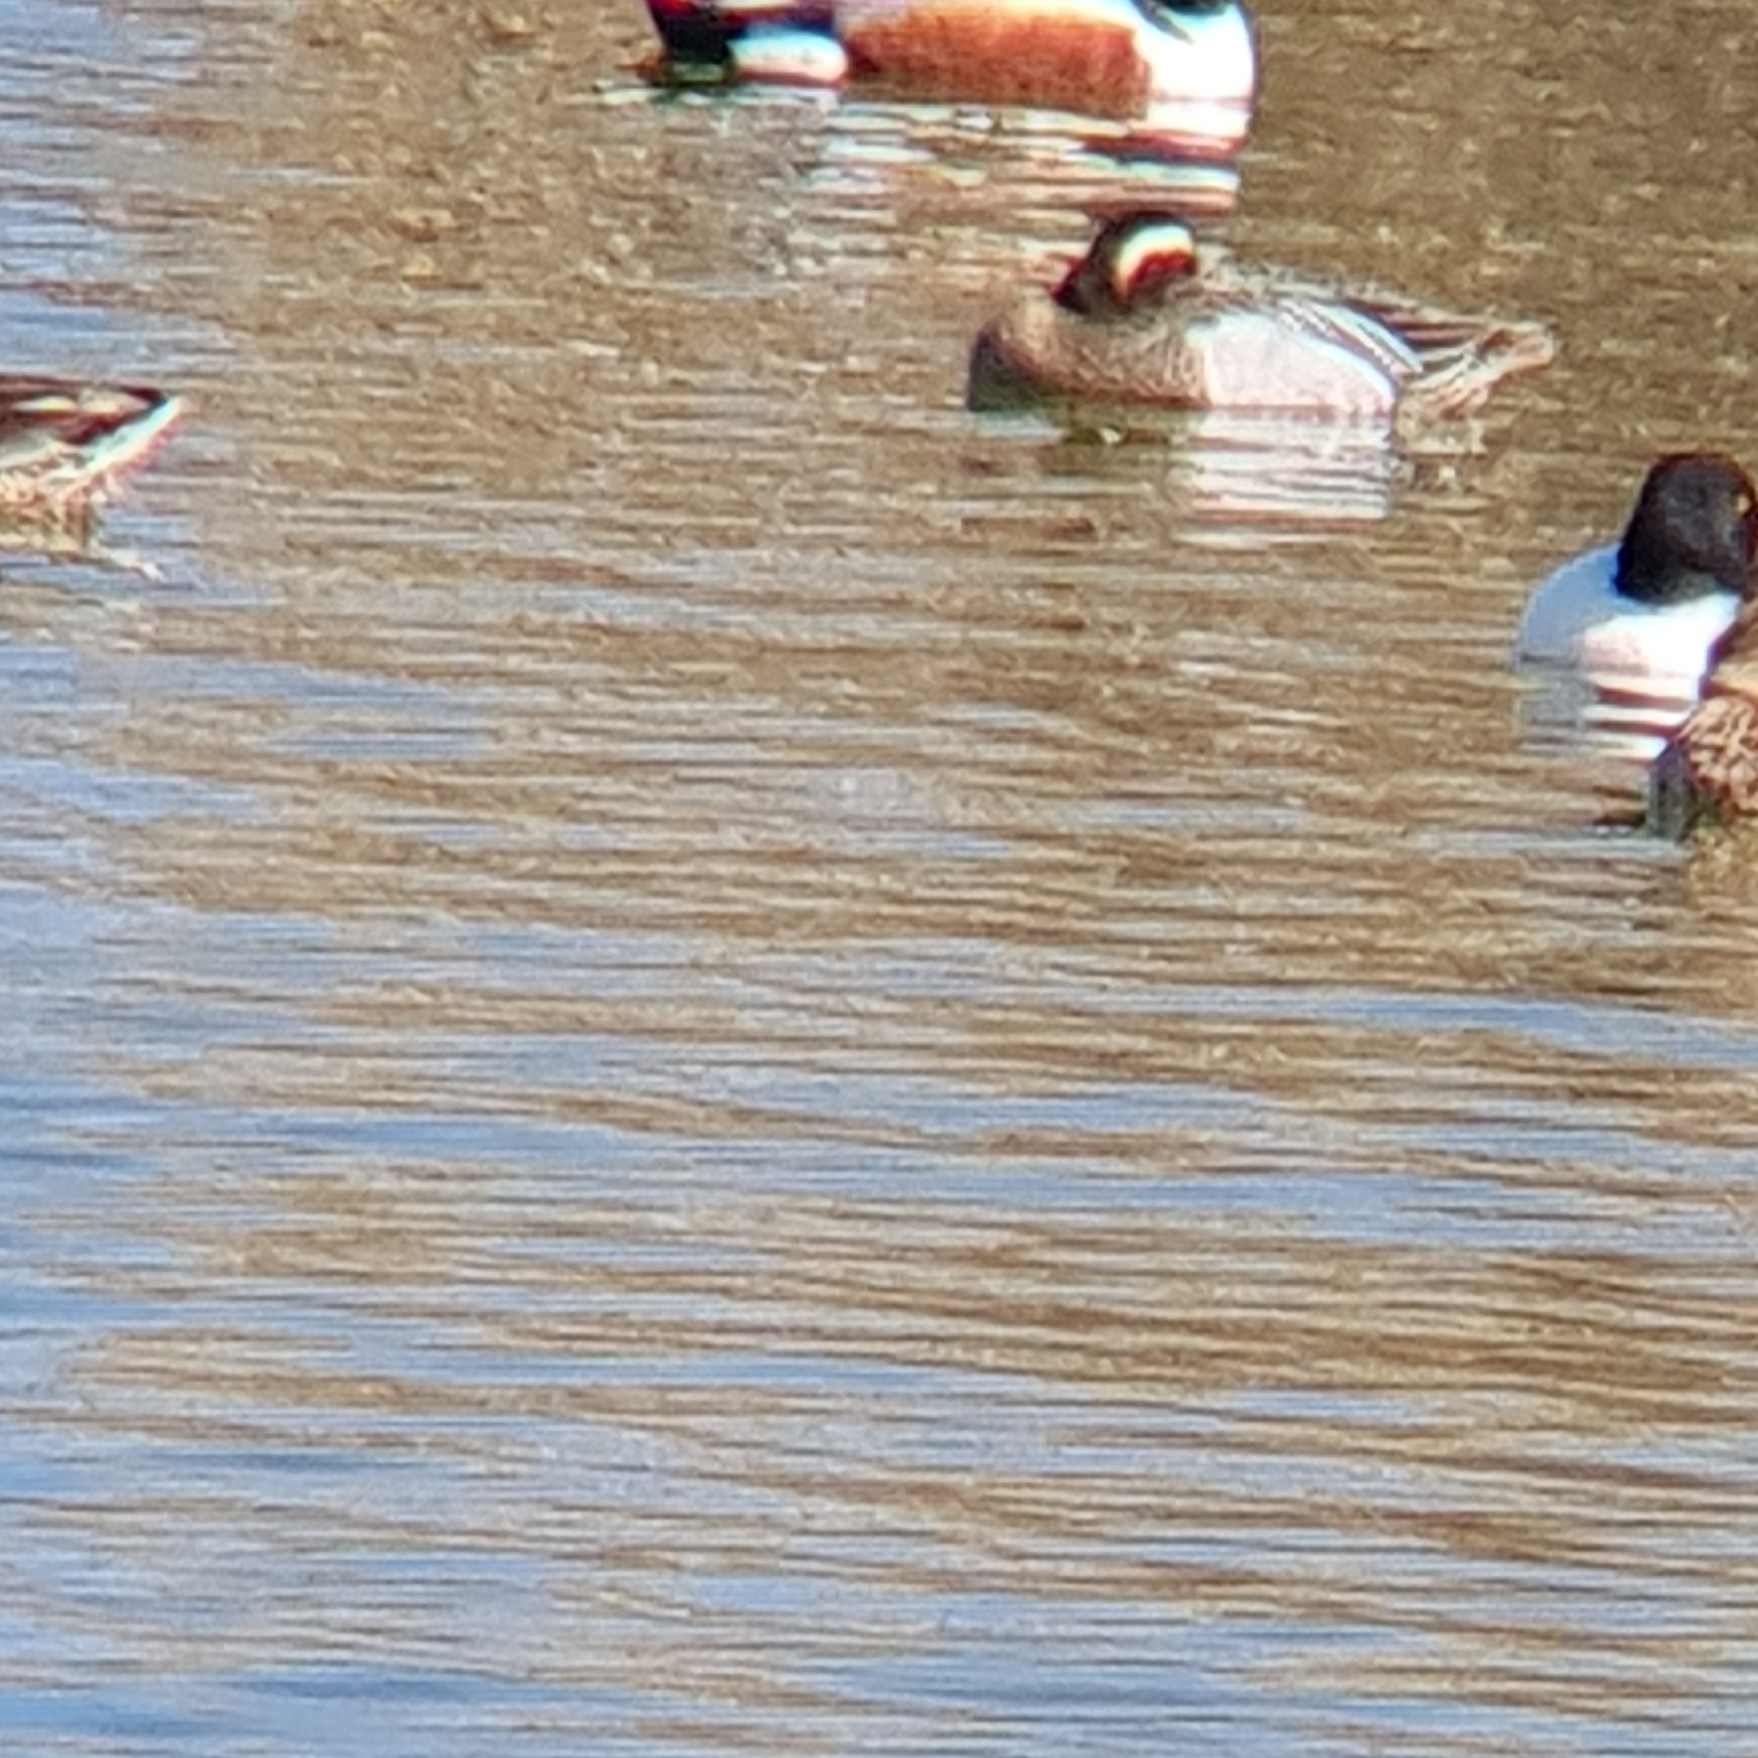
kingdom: Animalia
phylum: Chordata
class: Aves
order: Anseriformes
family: Anatidae
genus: Spatula
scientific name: Spatula querquedula
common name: Garganey
